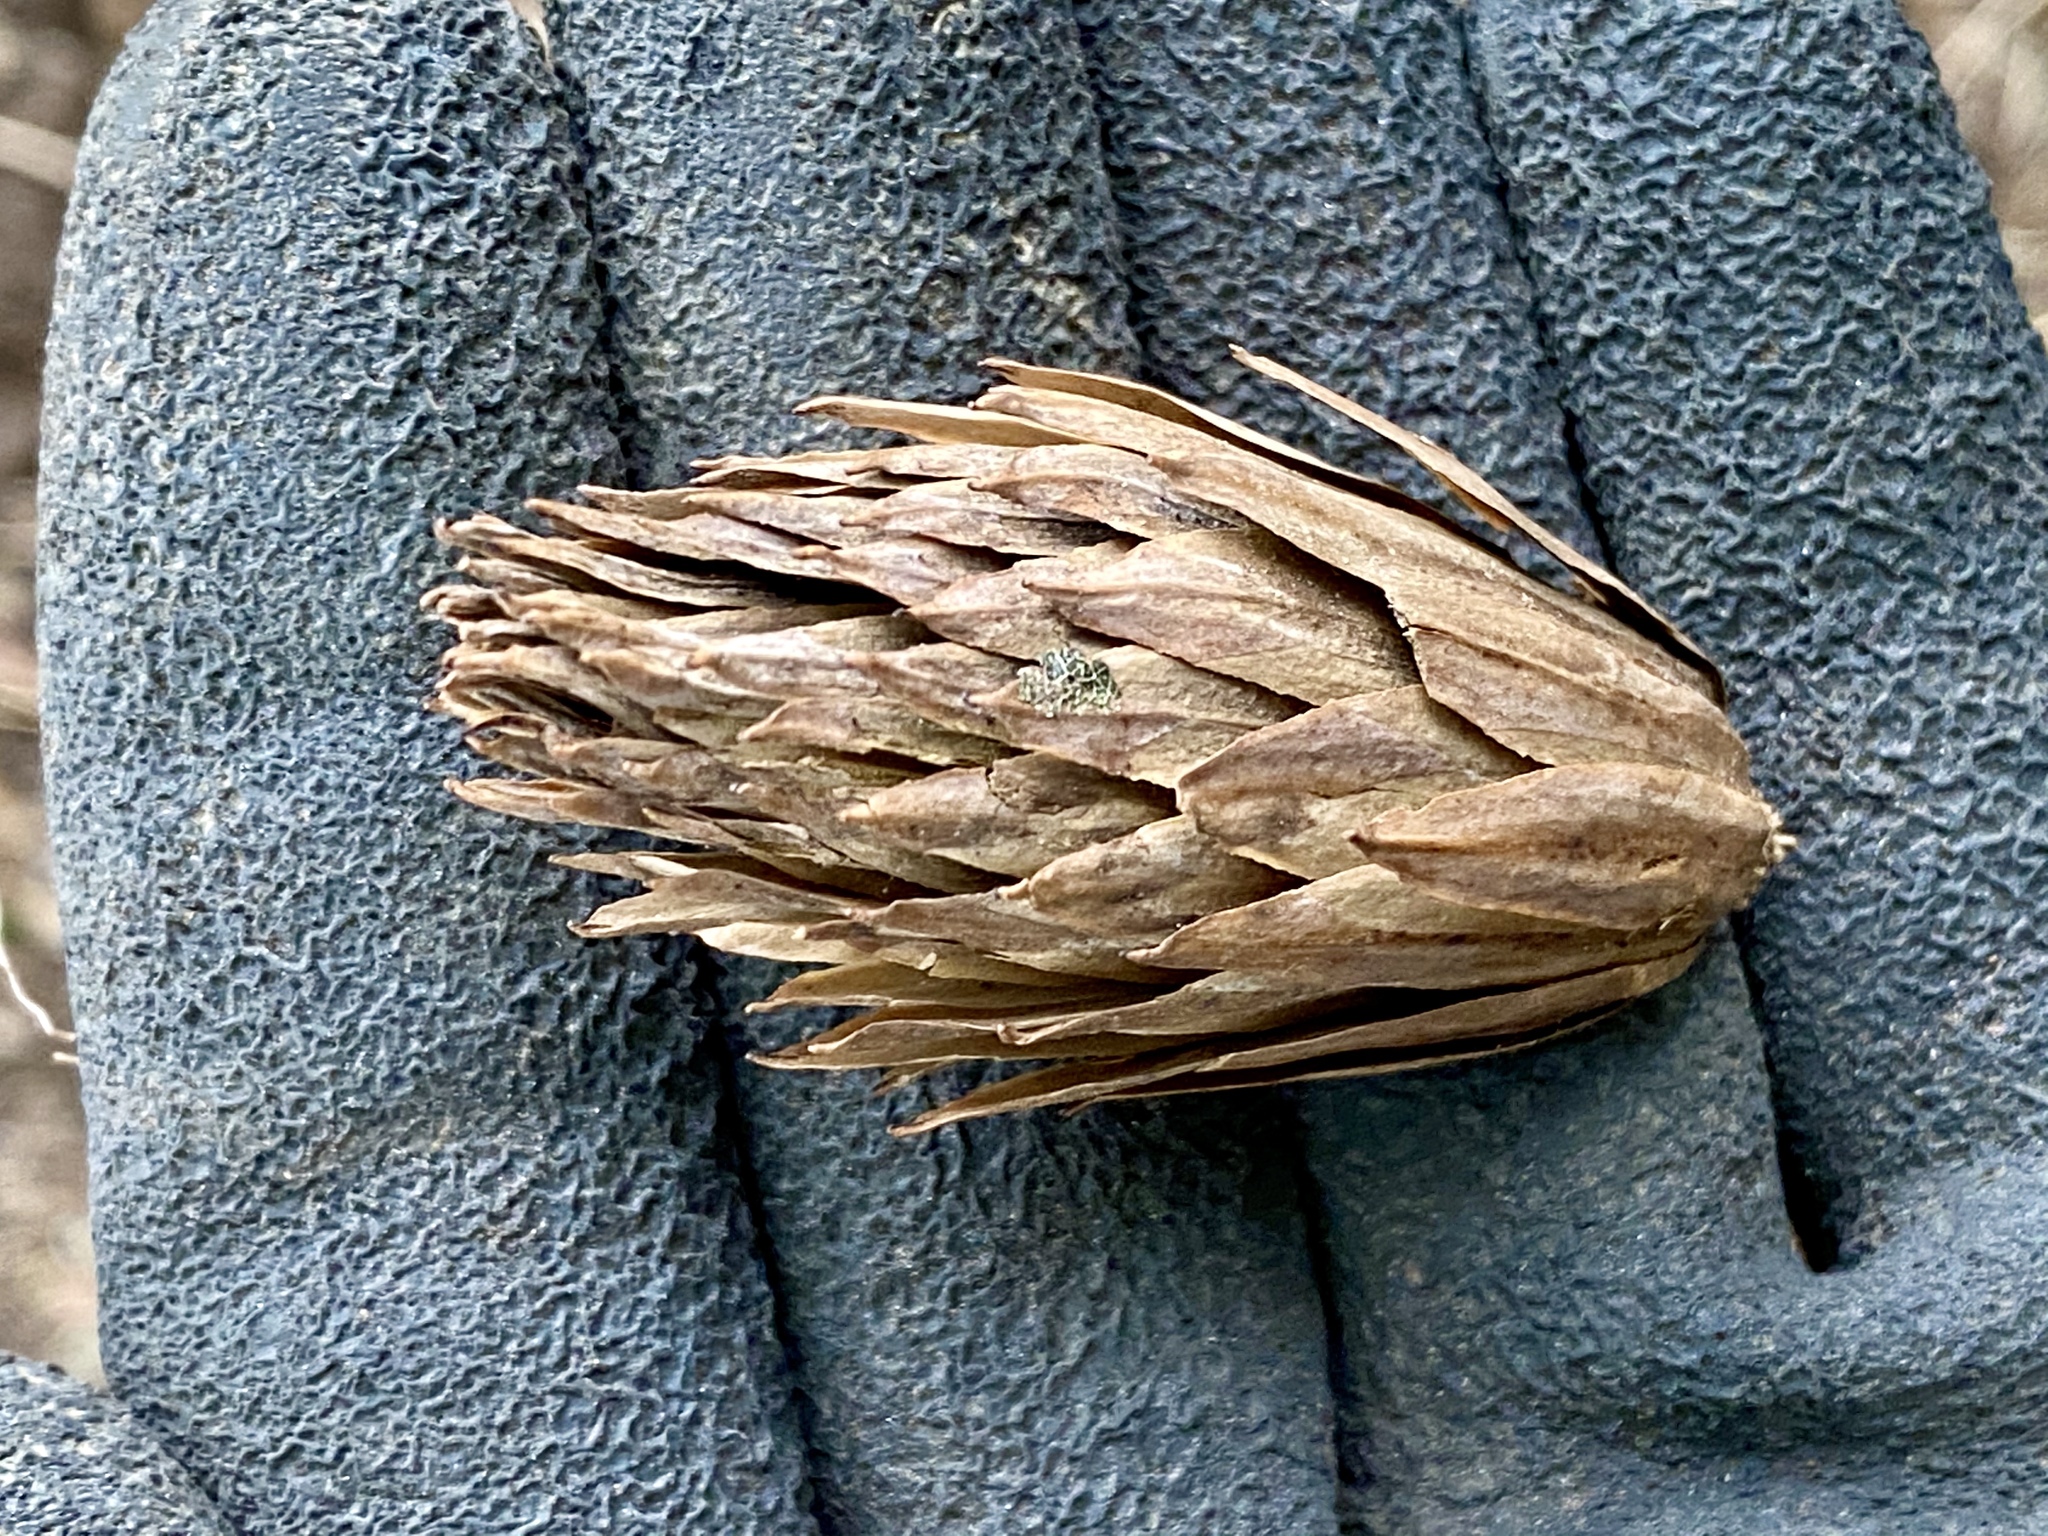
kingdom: Plantae
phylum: Tracheophyta
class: Magnoliopsida
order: Magnoliales
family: Magnoliaceae
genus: Liriodendron
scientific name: Liriodendron tulipifera
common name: Tulip tree
